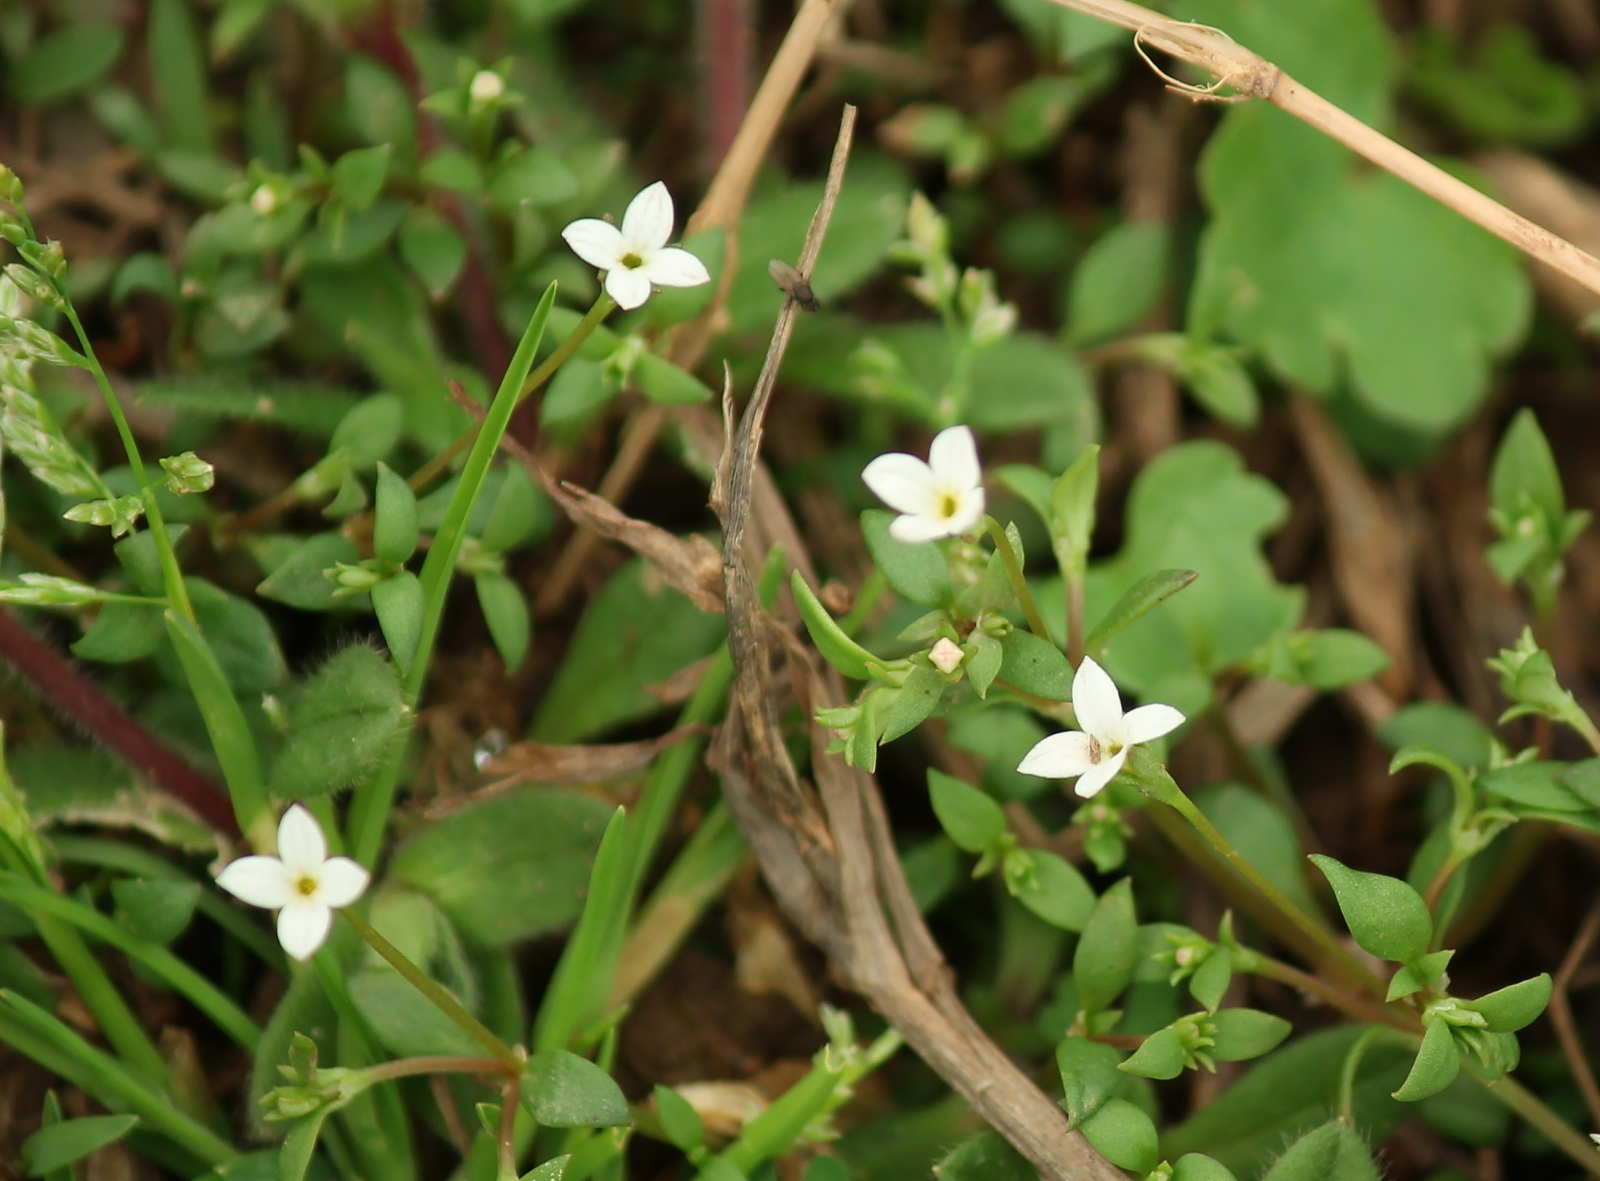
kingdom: Plantae
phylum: Tracheophyta
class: Magnoliopsida
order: Gentianales
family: Rubiaceae
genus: Houstonia
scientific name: Houstonia micrantha
